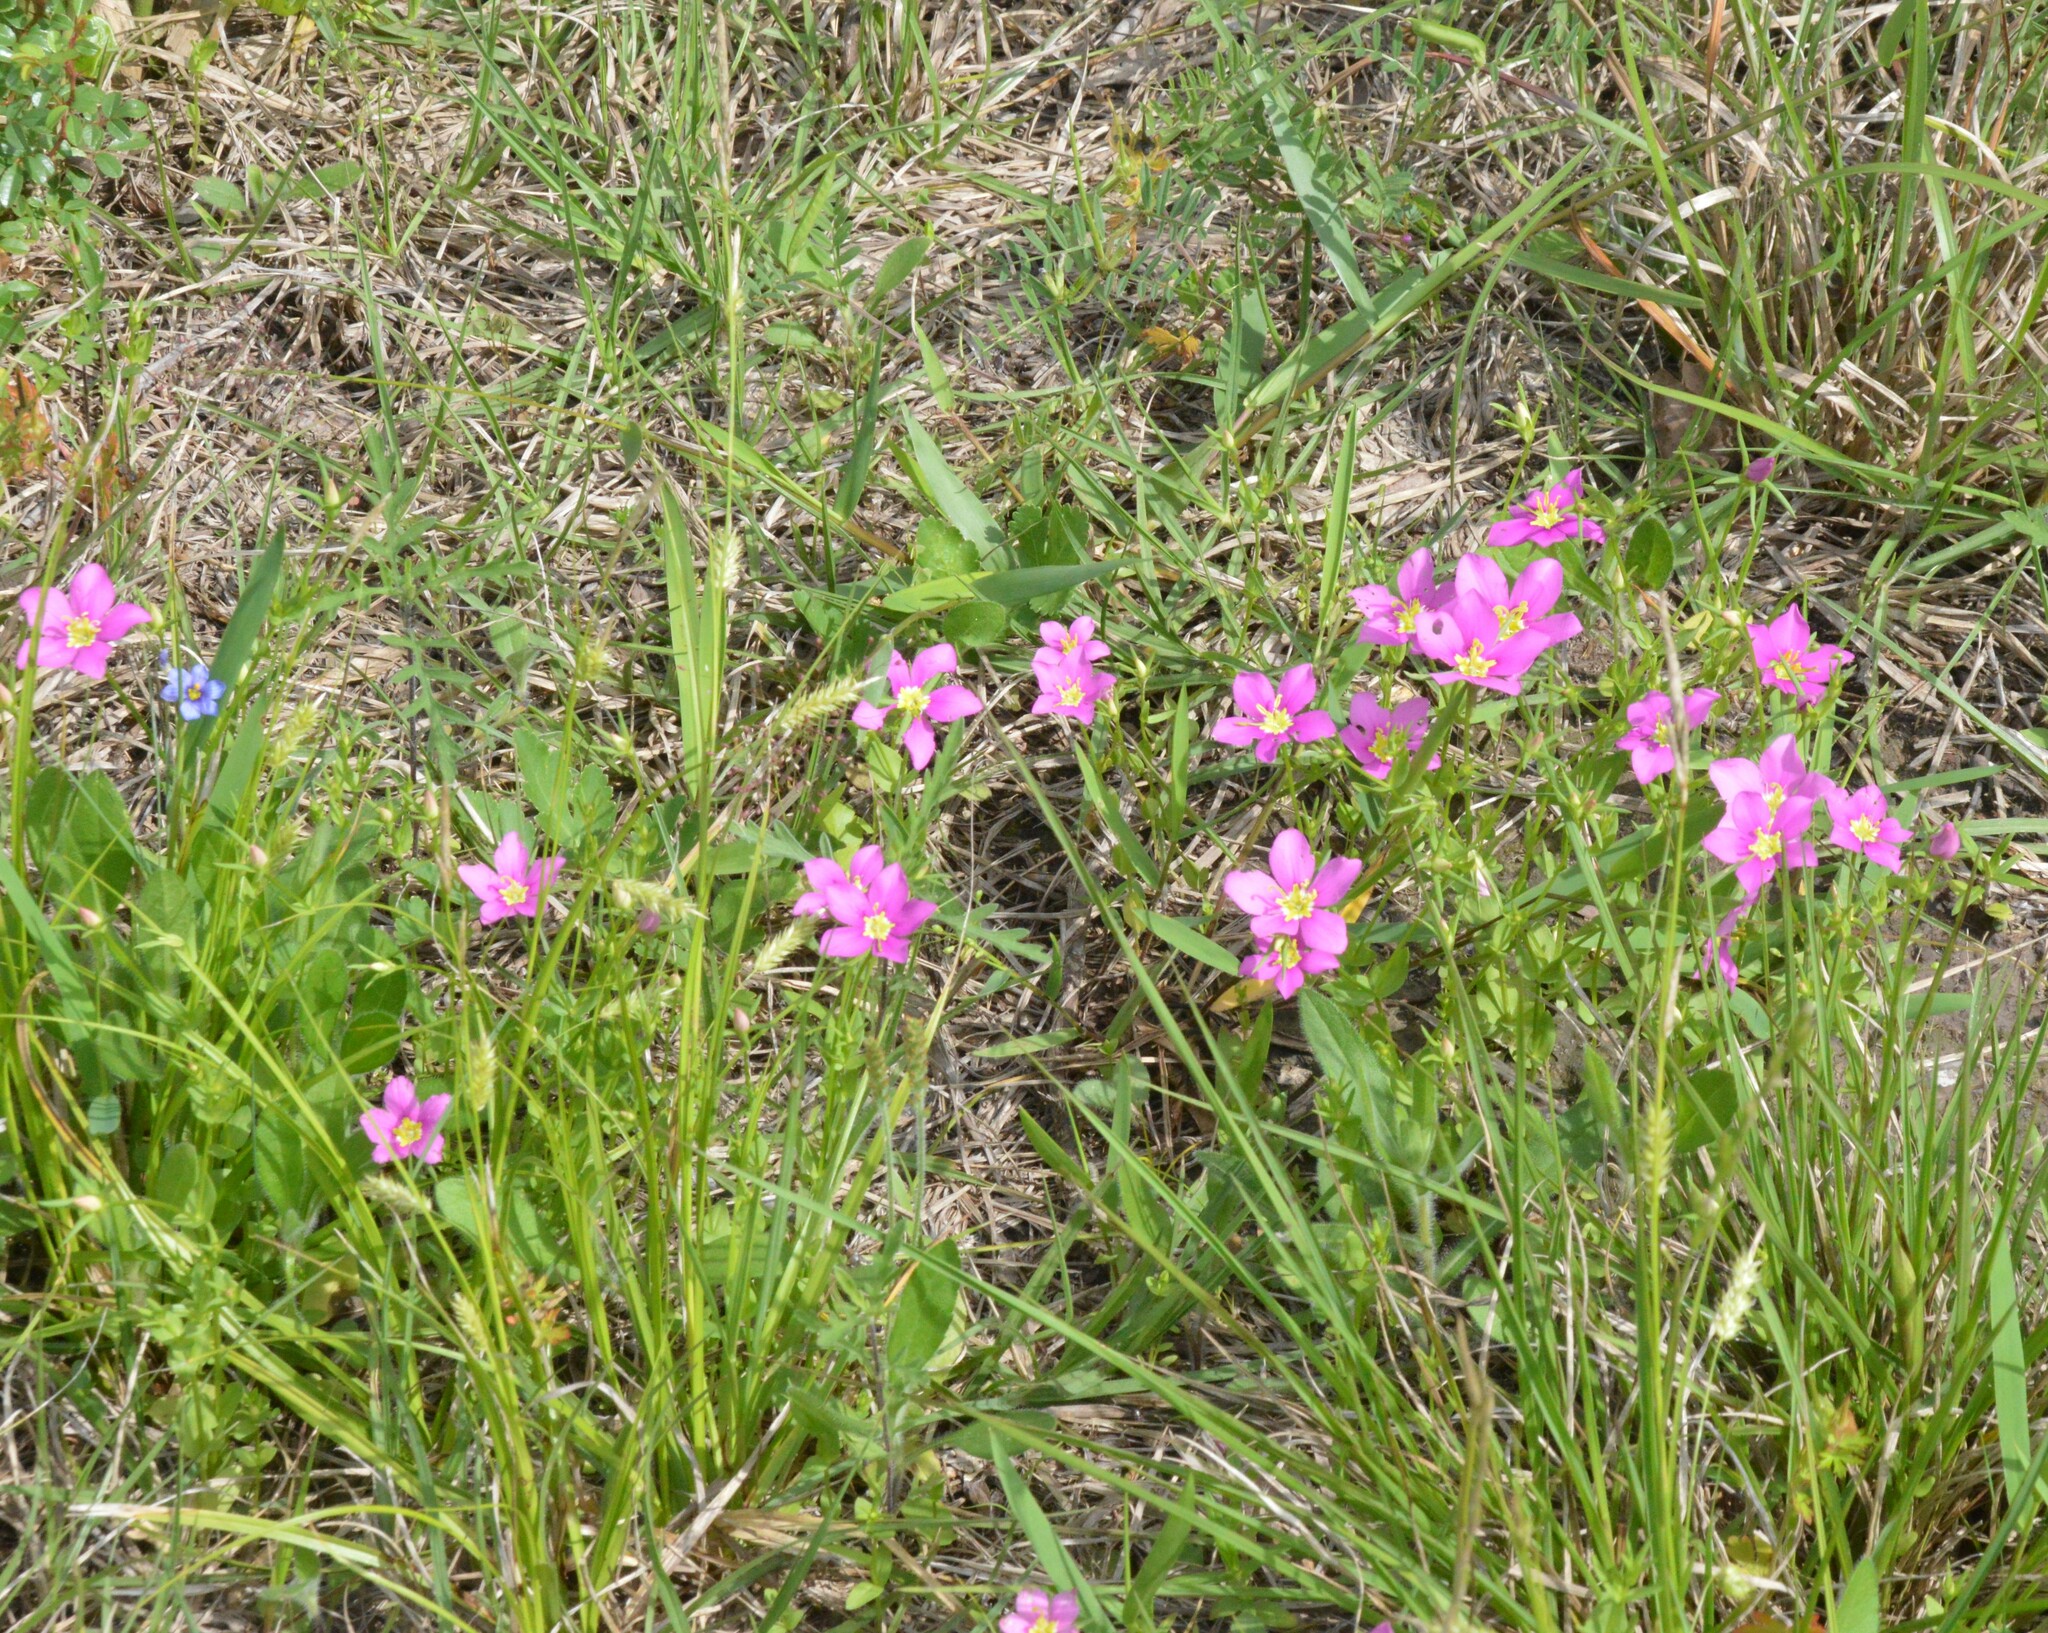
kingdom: Plantae
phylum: Tracheophyta
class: Magnoliopsida
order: Gentianales
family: Gentianaceae
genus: Sabatia
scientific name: Sabatia campestris
